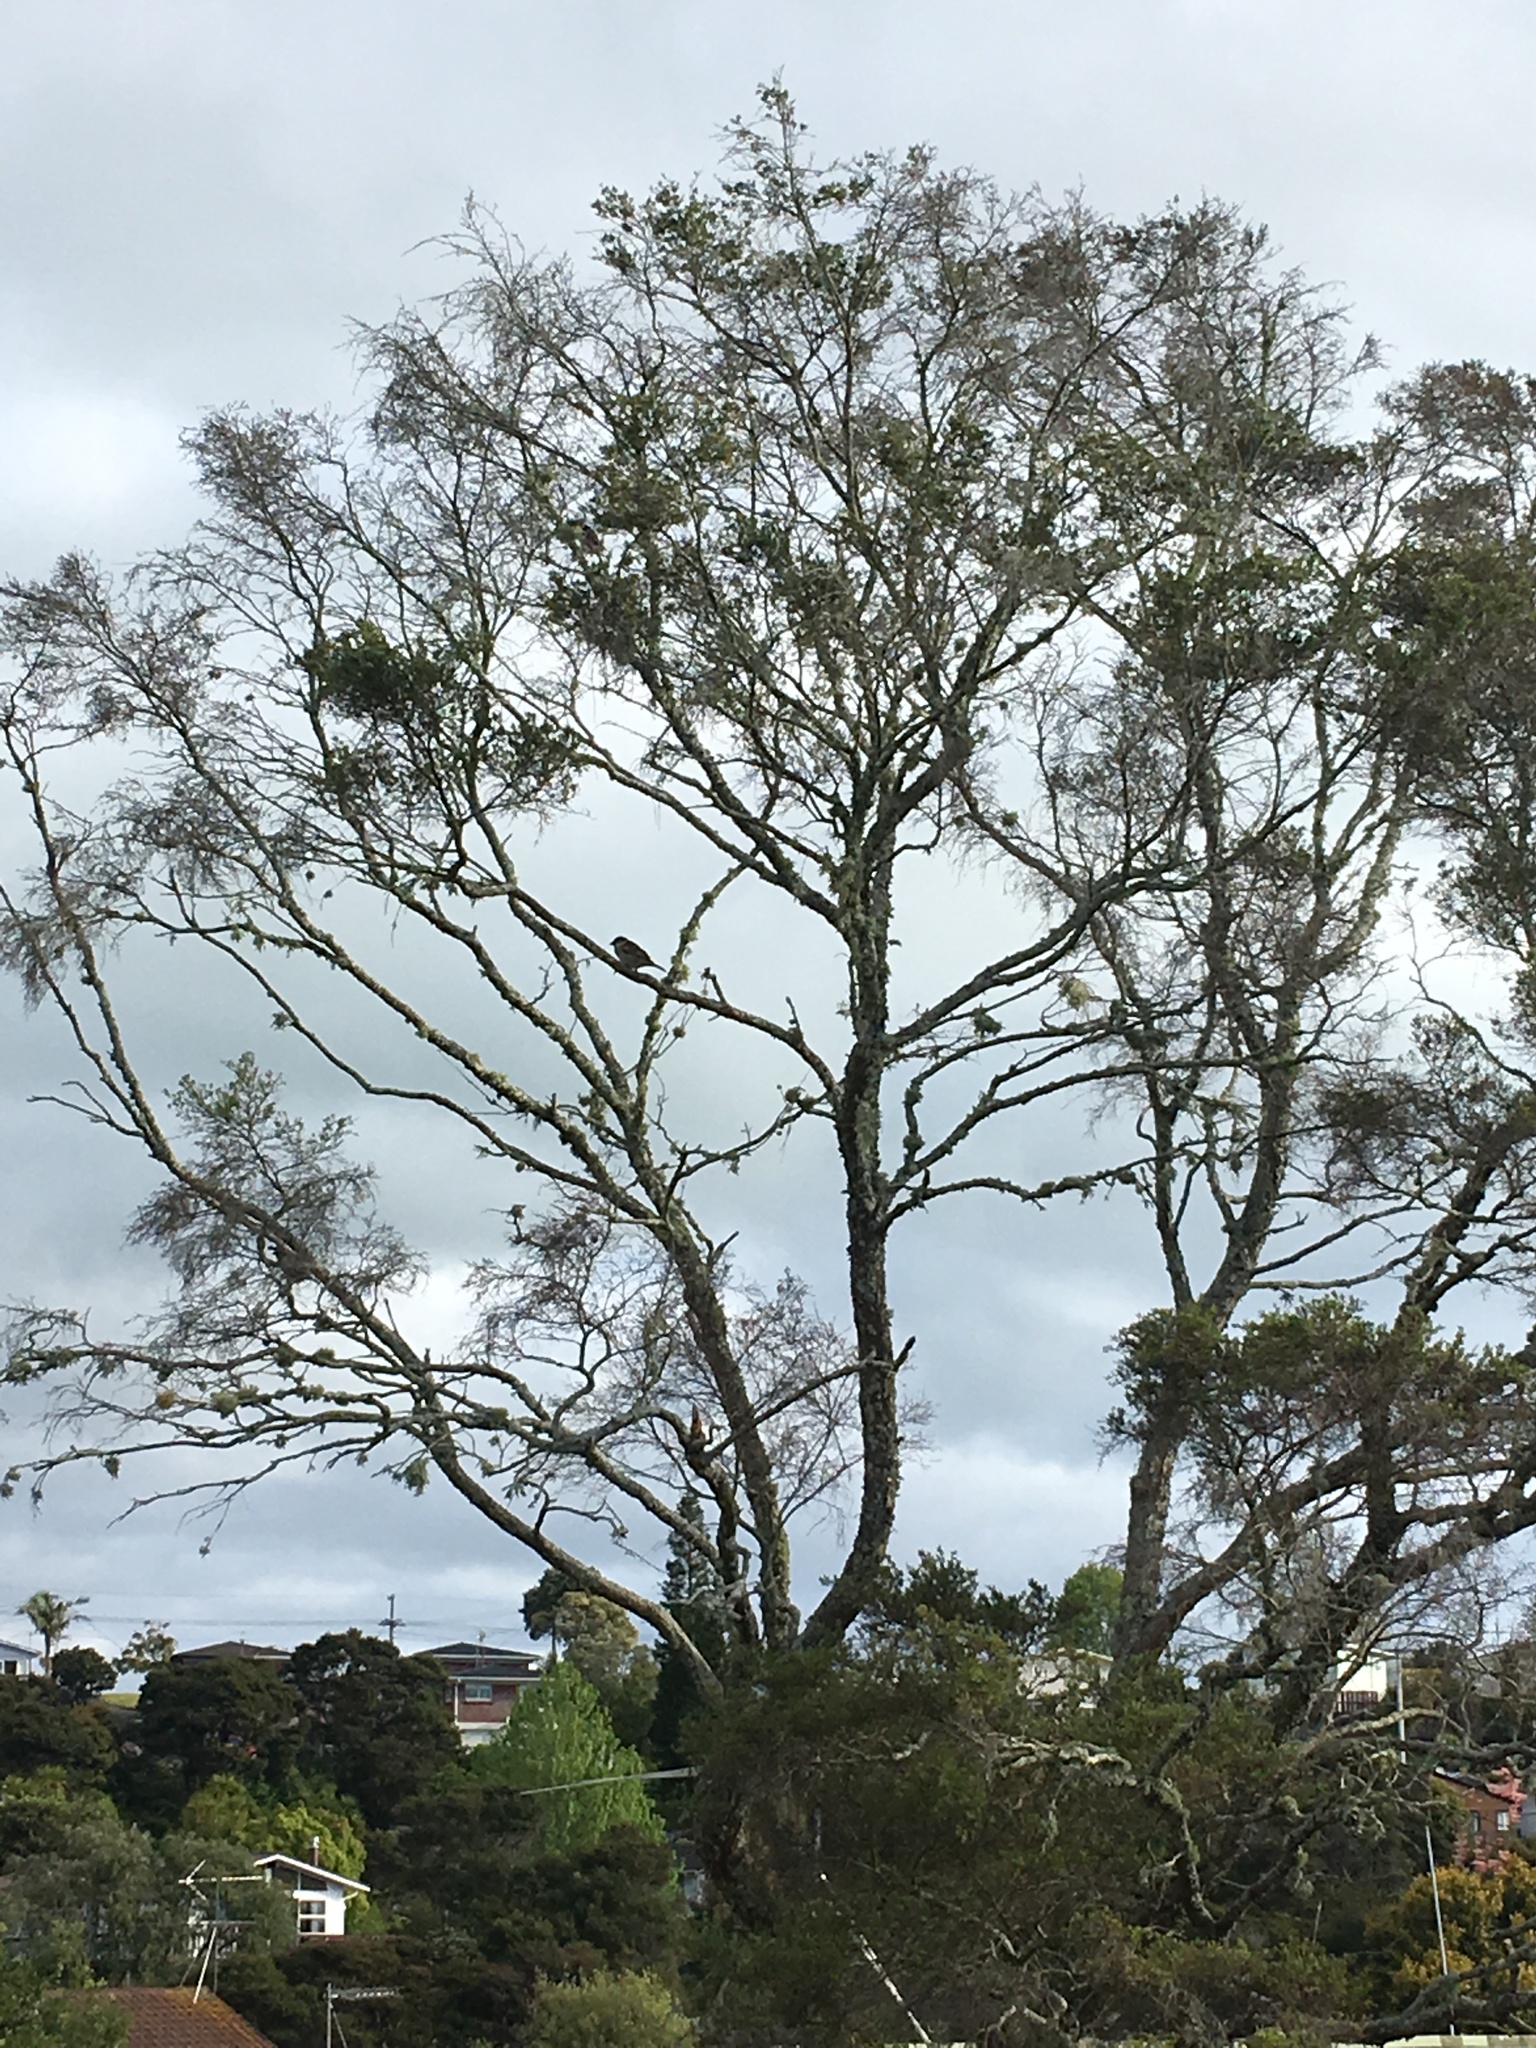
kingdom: Animalia
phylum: Chordata
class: Aves
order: Passeriformes
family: Passeridae
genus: Passer
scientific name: Passer domesticus
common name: House sparrow
